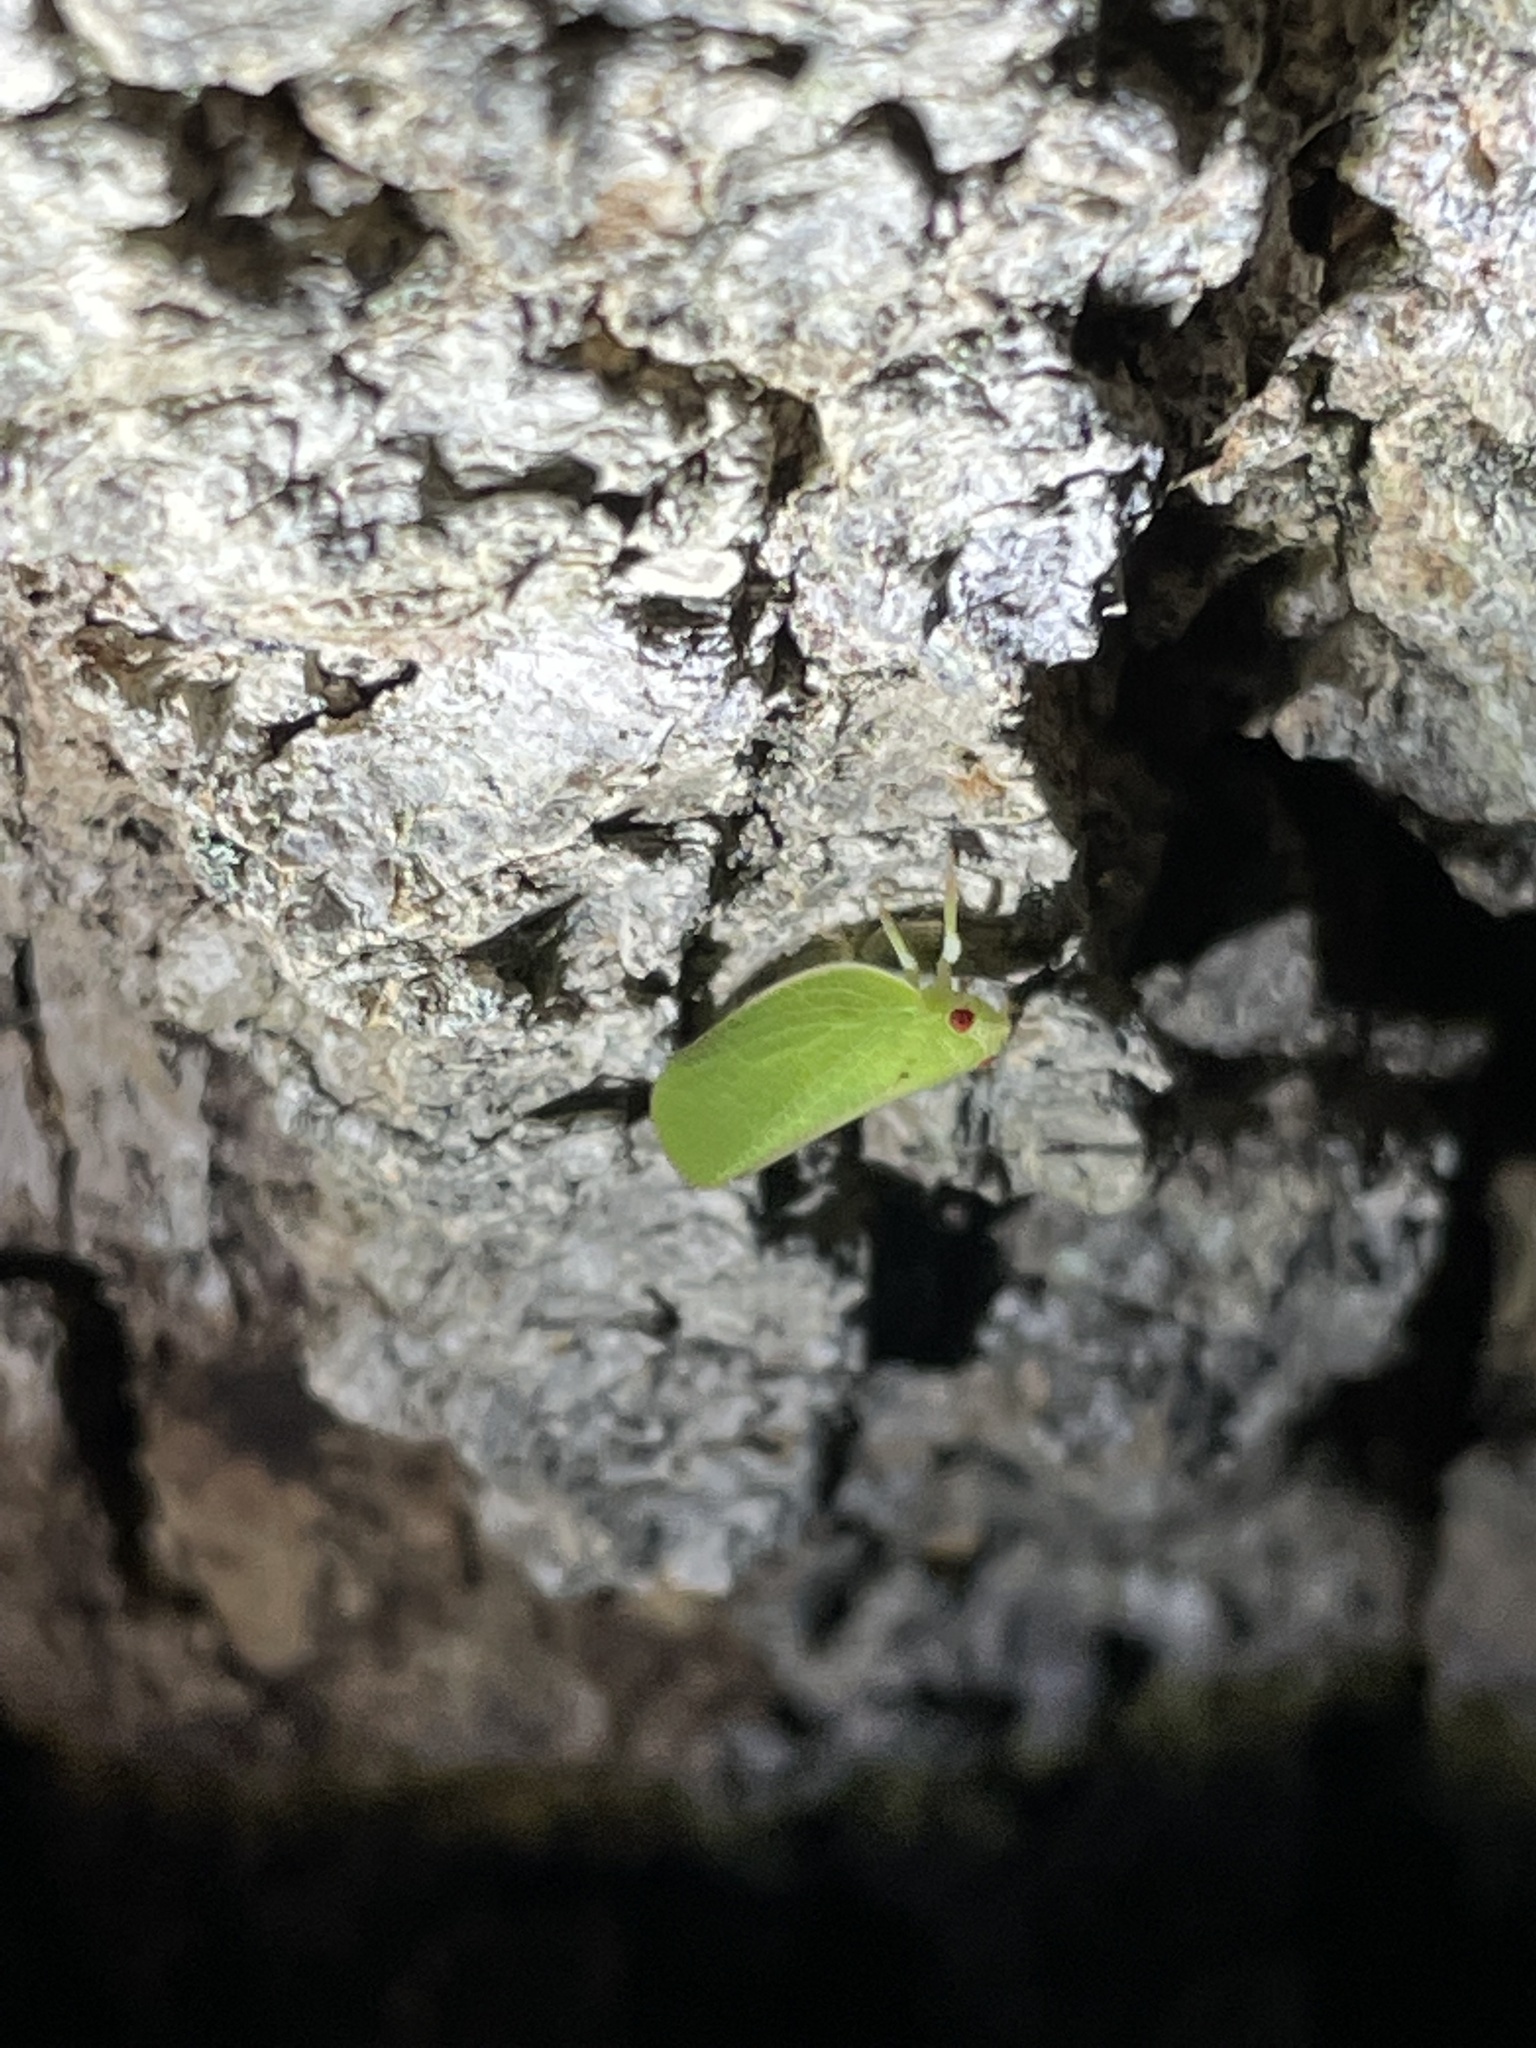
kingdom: Animalia
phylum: Arthropoda
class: Insecta
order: Hemiptera
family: Acanaloniidae
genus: Acanalonia
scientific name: Acanalonia conica
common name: Green cone-headed planthopper
